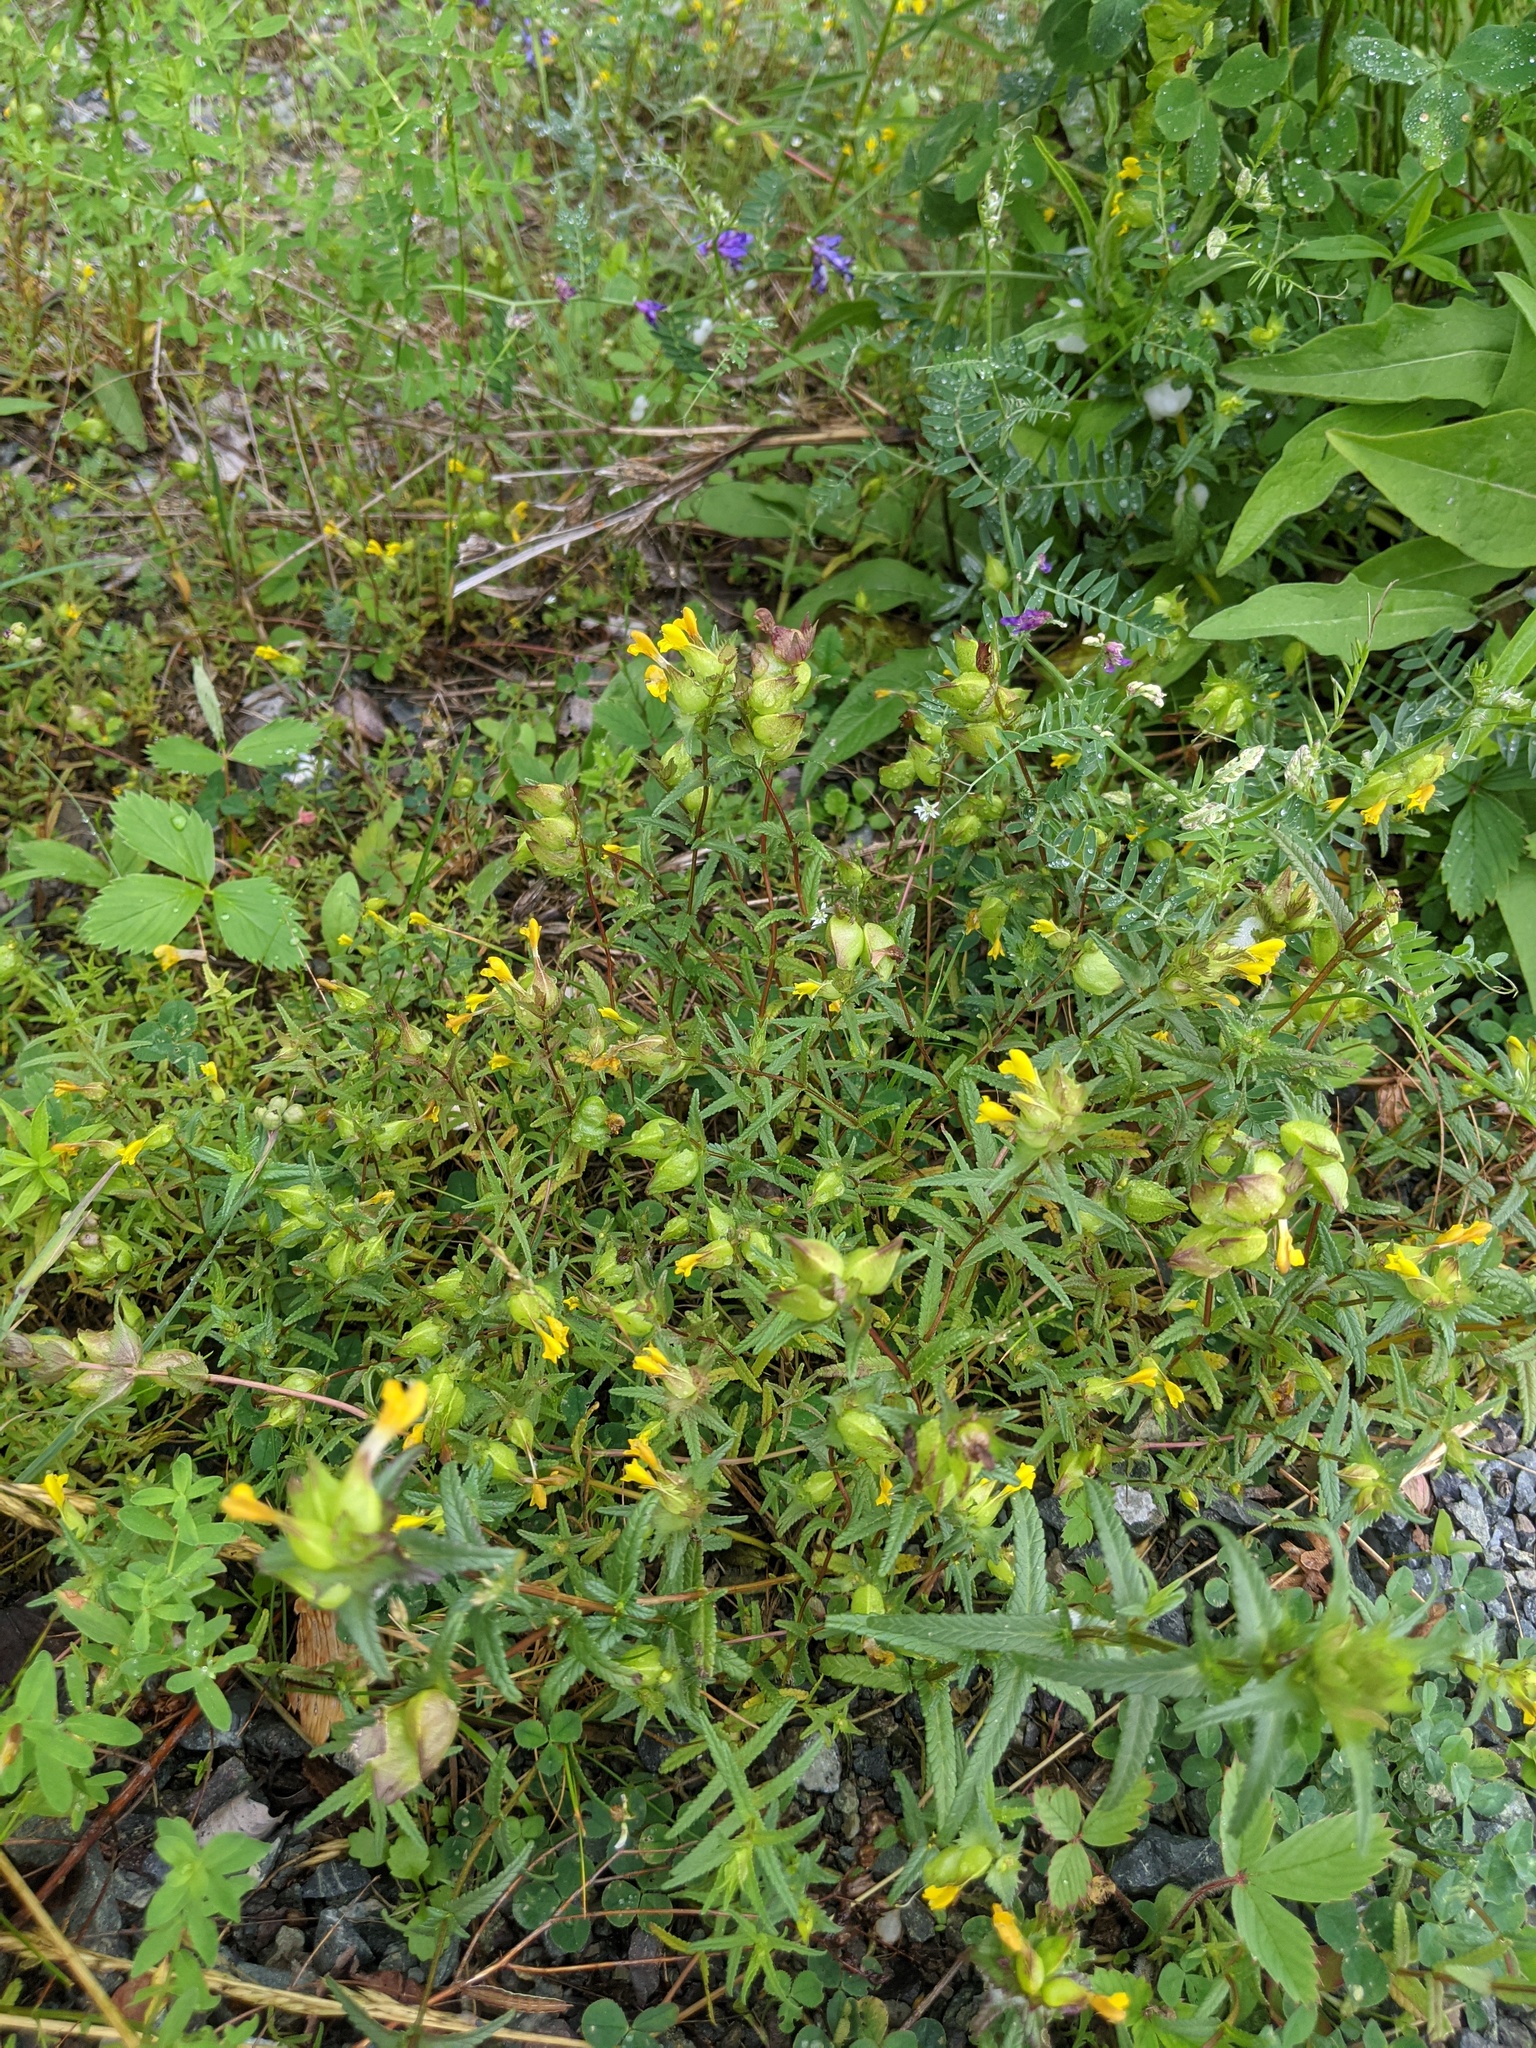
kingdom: Plantae
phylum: Tracheophyta
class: Magnoliopsida
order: Lamiales
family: Orobanchaceae
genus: Rhinanthus
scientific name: Rhinanthus minor
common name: Yellow-rattle
